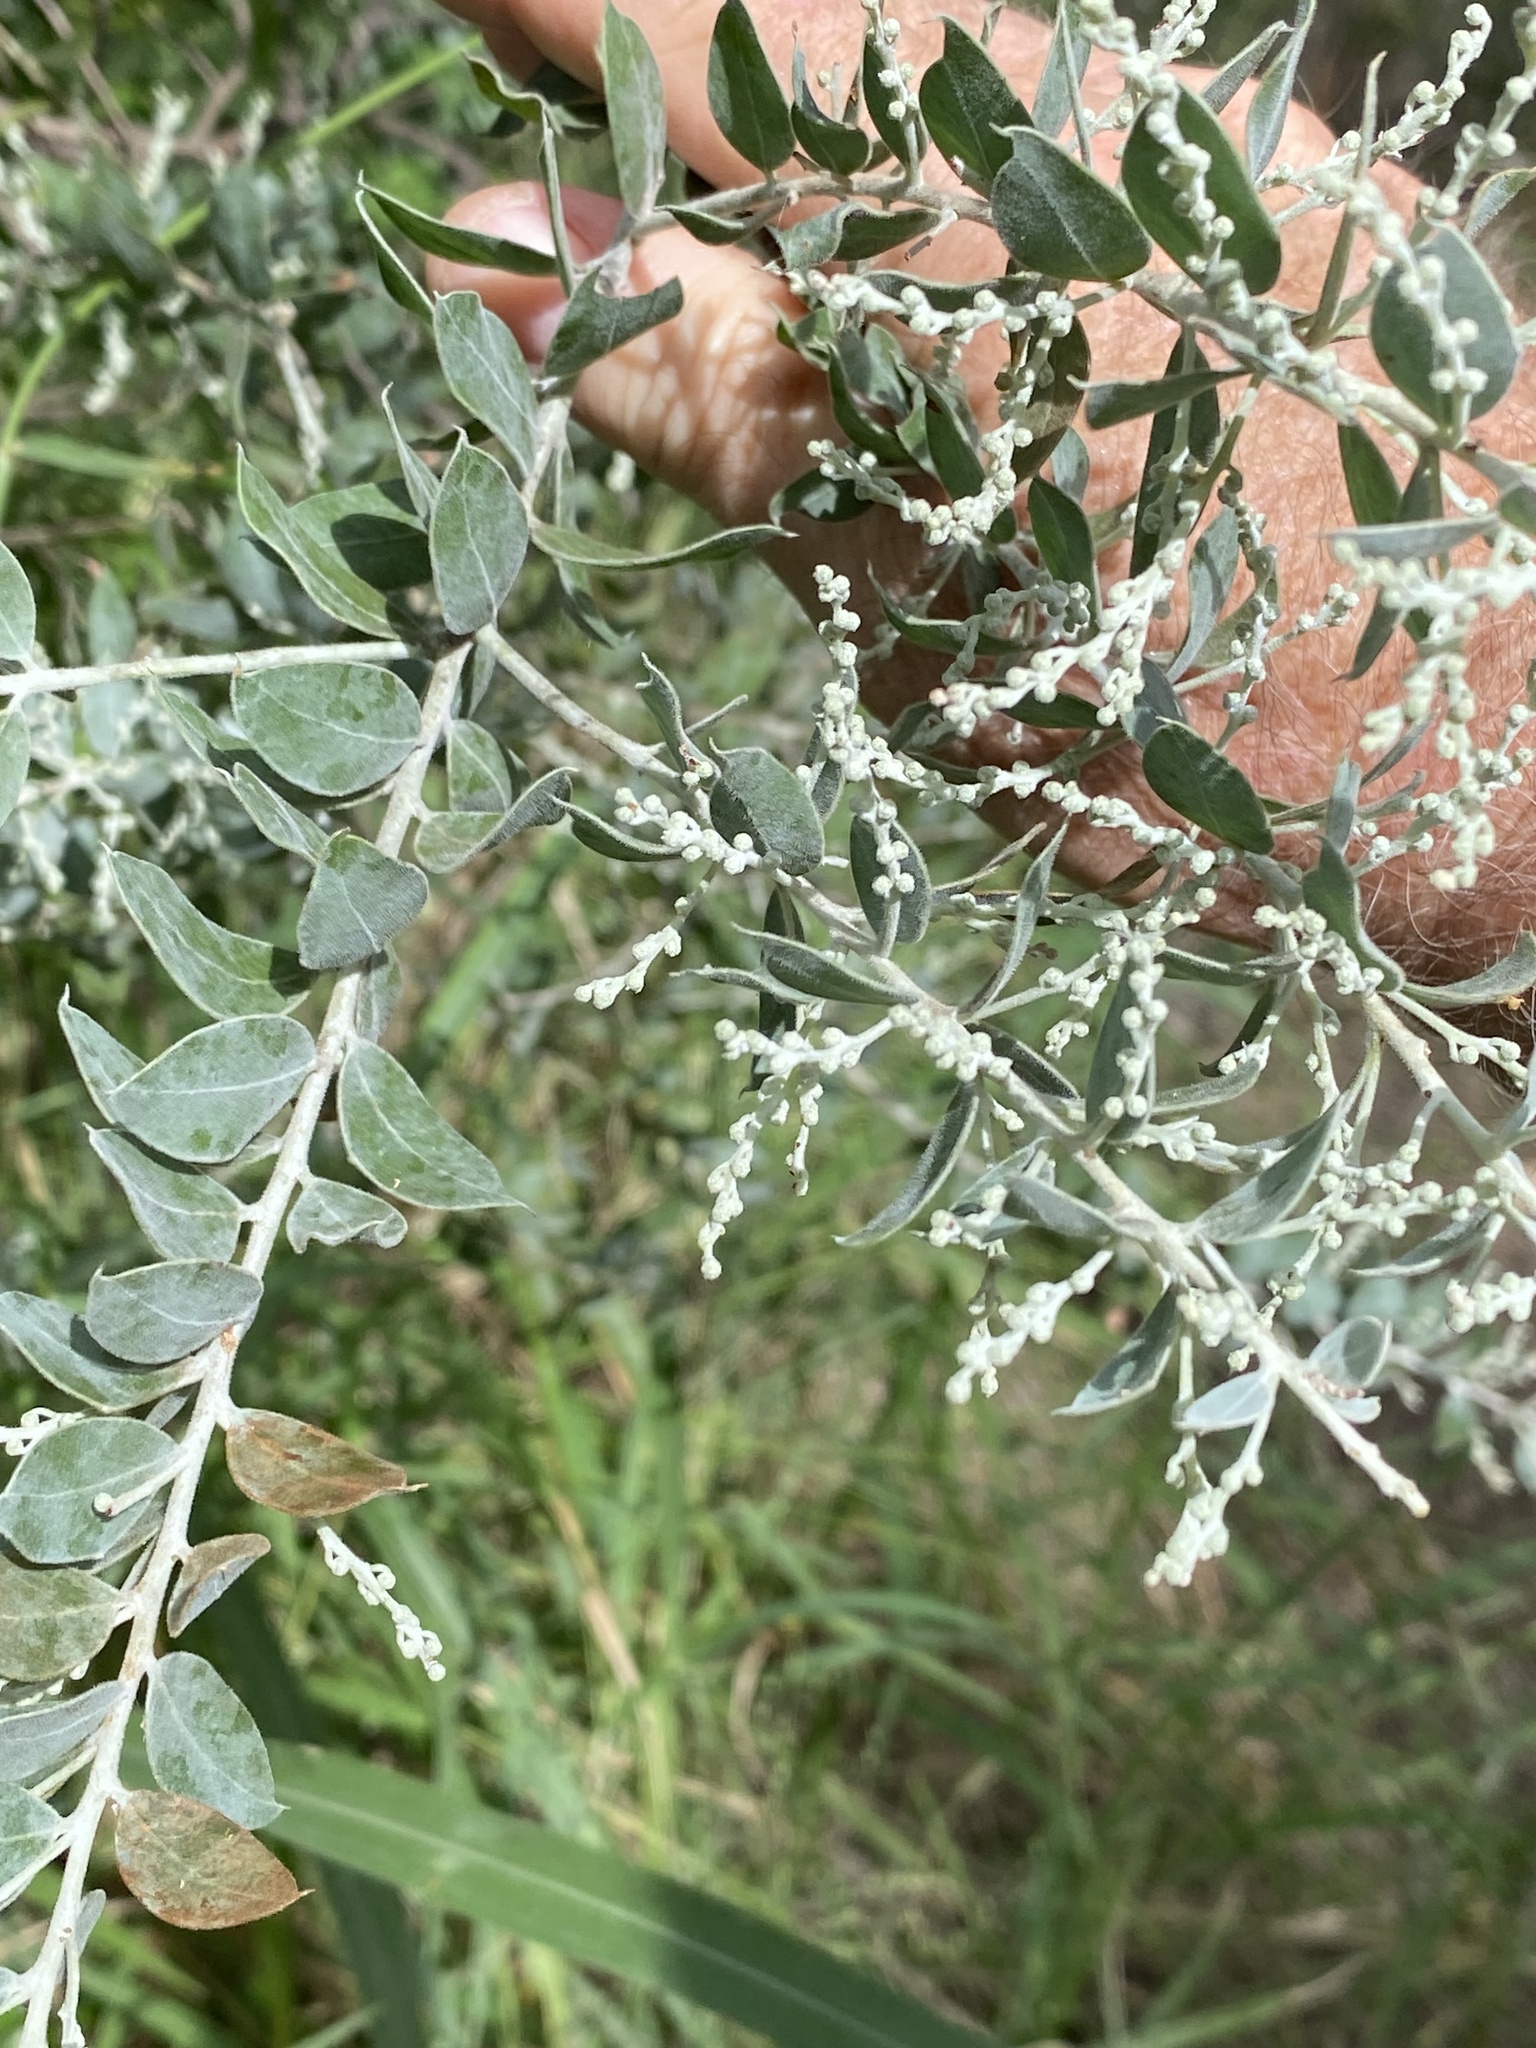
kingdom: Plantae
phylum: Tracheophyta
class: Magnoliopsida
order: Fabales
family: Fabaceae
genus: Acacia
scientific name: Acacia podalyriifolia
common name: Pearl wattle
